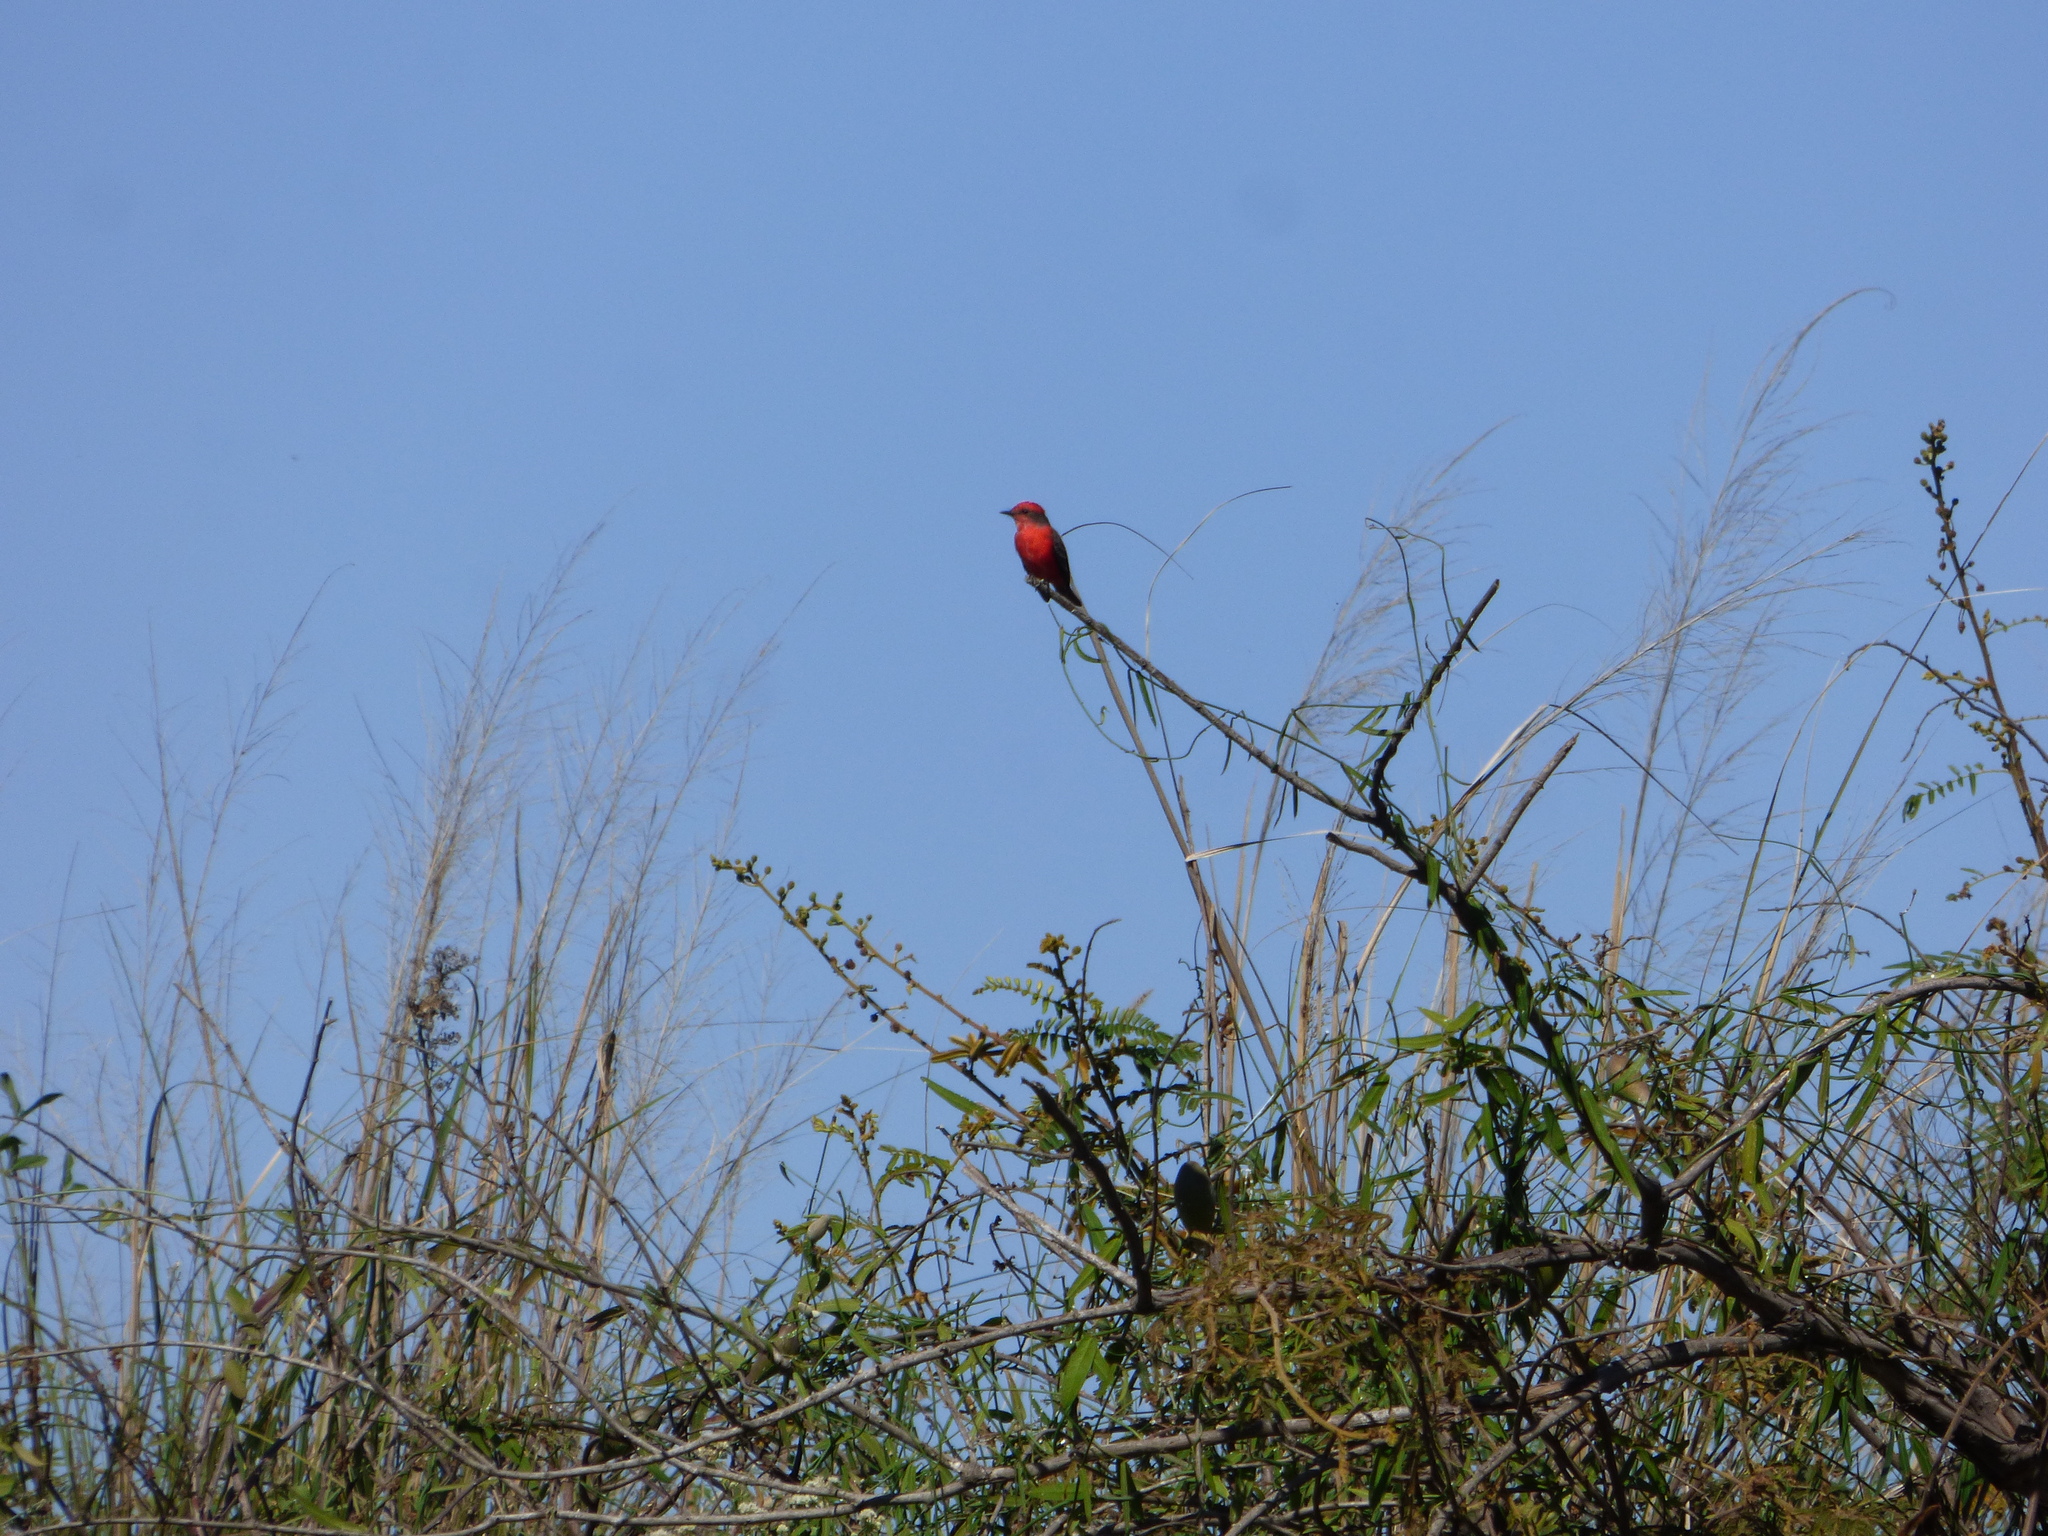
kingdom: Animalia
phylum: Chordata
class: Aves
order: Passeriformes
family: Tyrannidae
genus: Pyrocephalus
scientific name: Pyrocephalus rubinus
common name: Vermilion flycatcher
